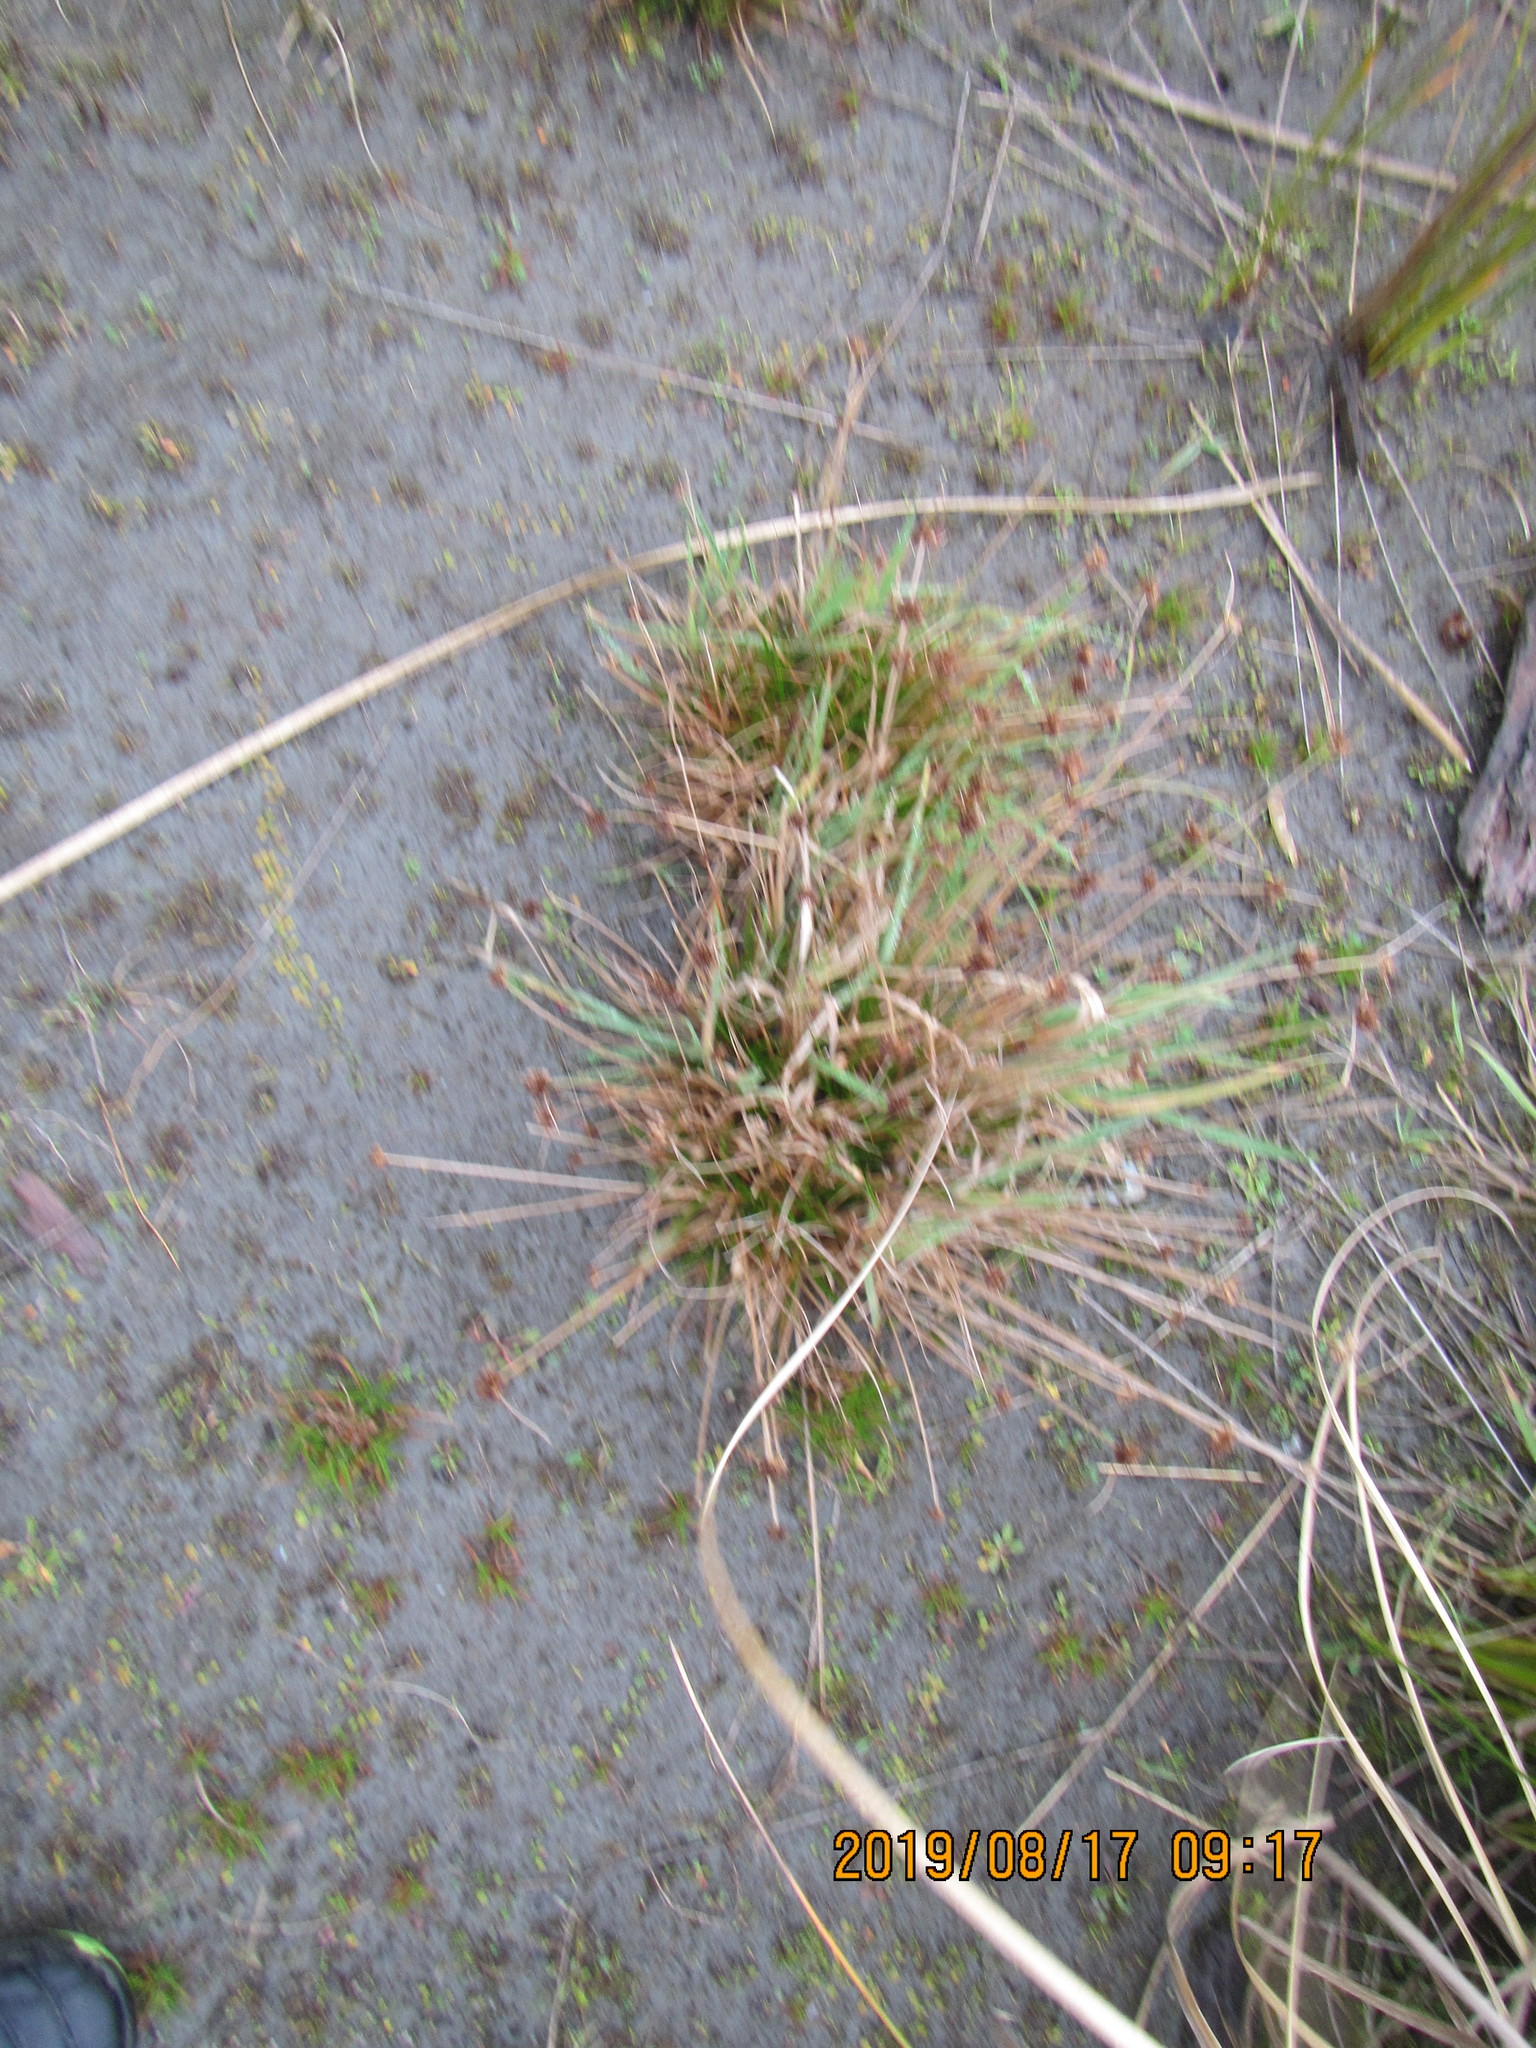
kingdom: Plantae
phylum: Tracheophyta
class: Liliopsida
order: Poales
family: Juncaceae
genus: Juncus
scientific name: Juncus caespiticius
